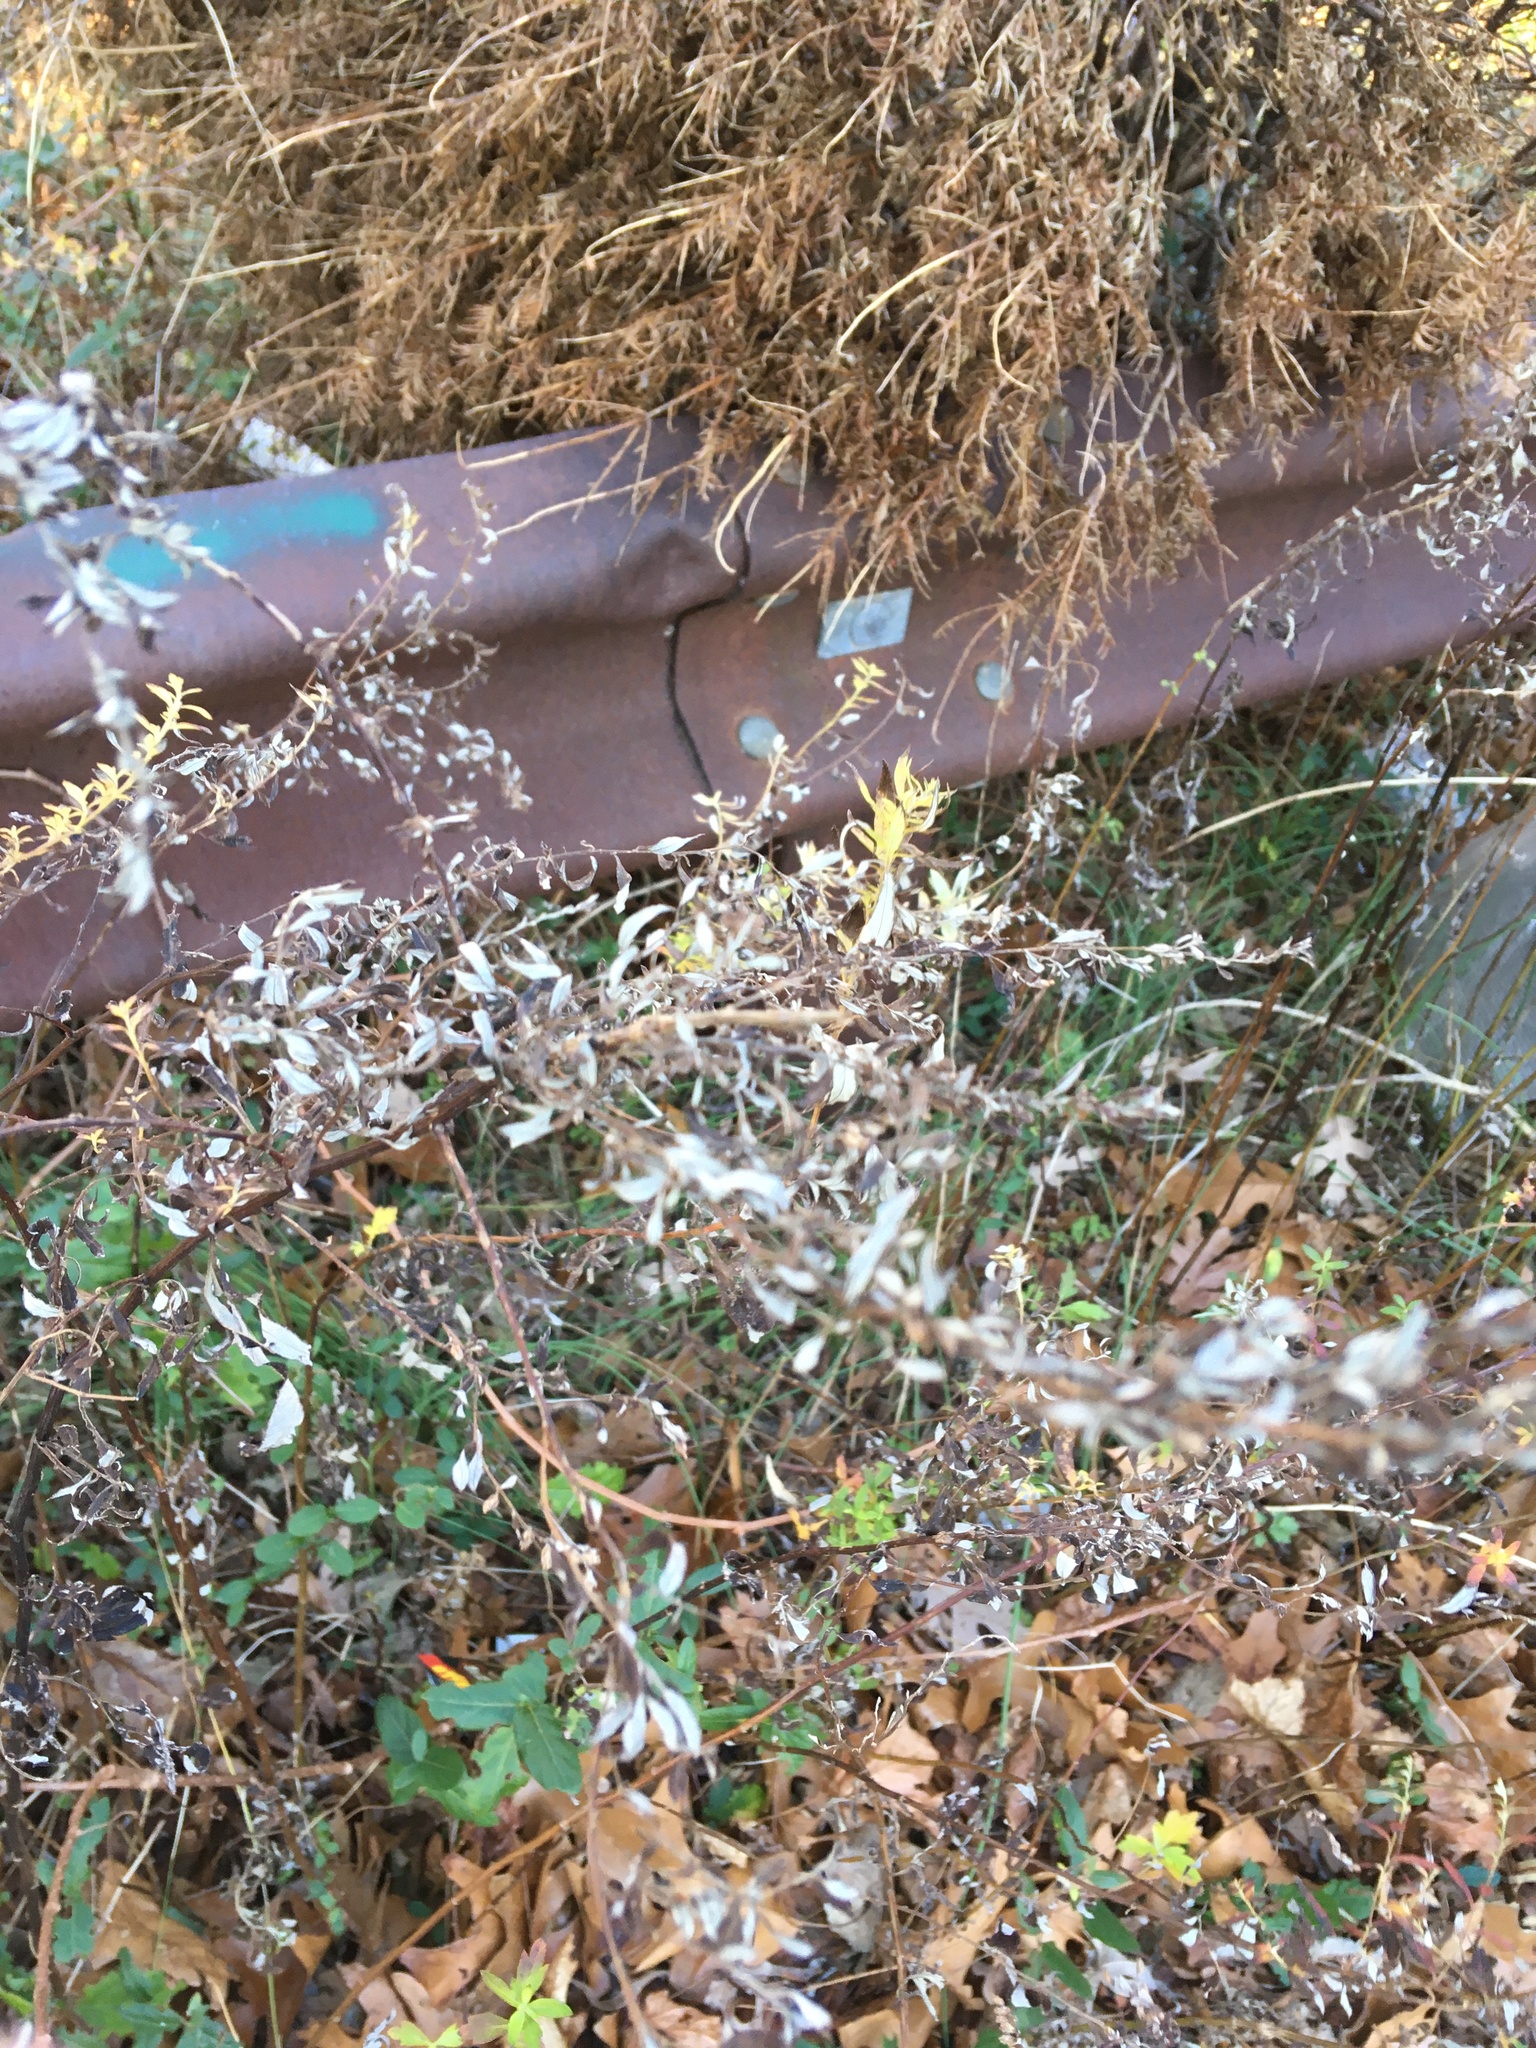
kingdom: Plantae
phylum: Tracheophyta
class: Magnoliopsida
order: Asterales
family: Asteraceae
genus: Artemisia
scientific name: Artemisia vulgaris
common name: Mugwort
